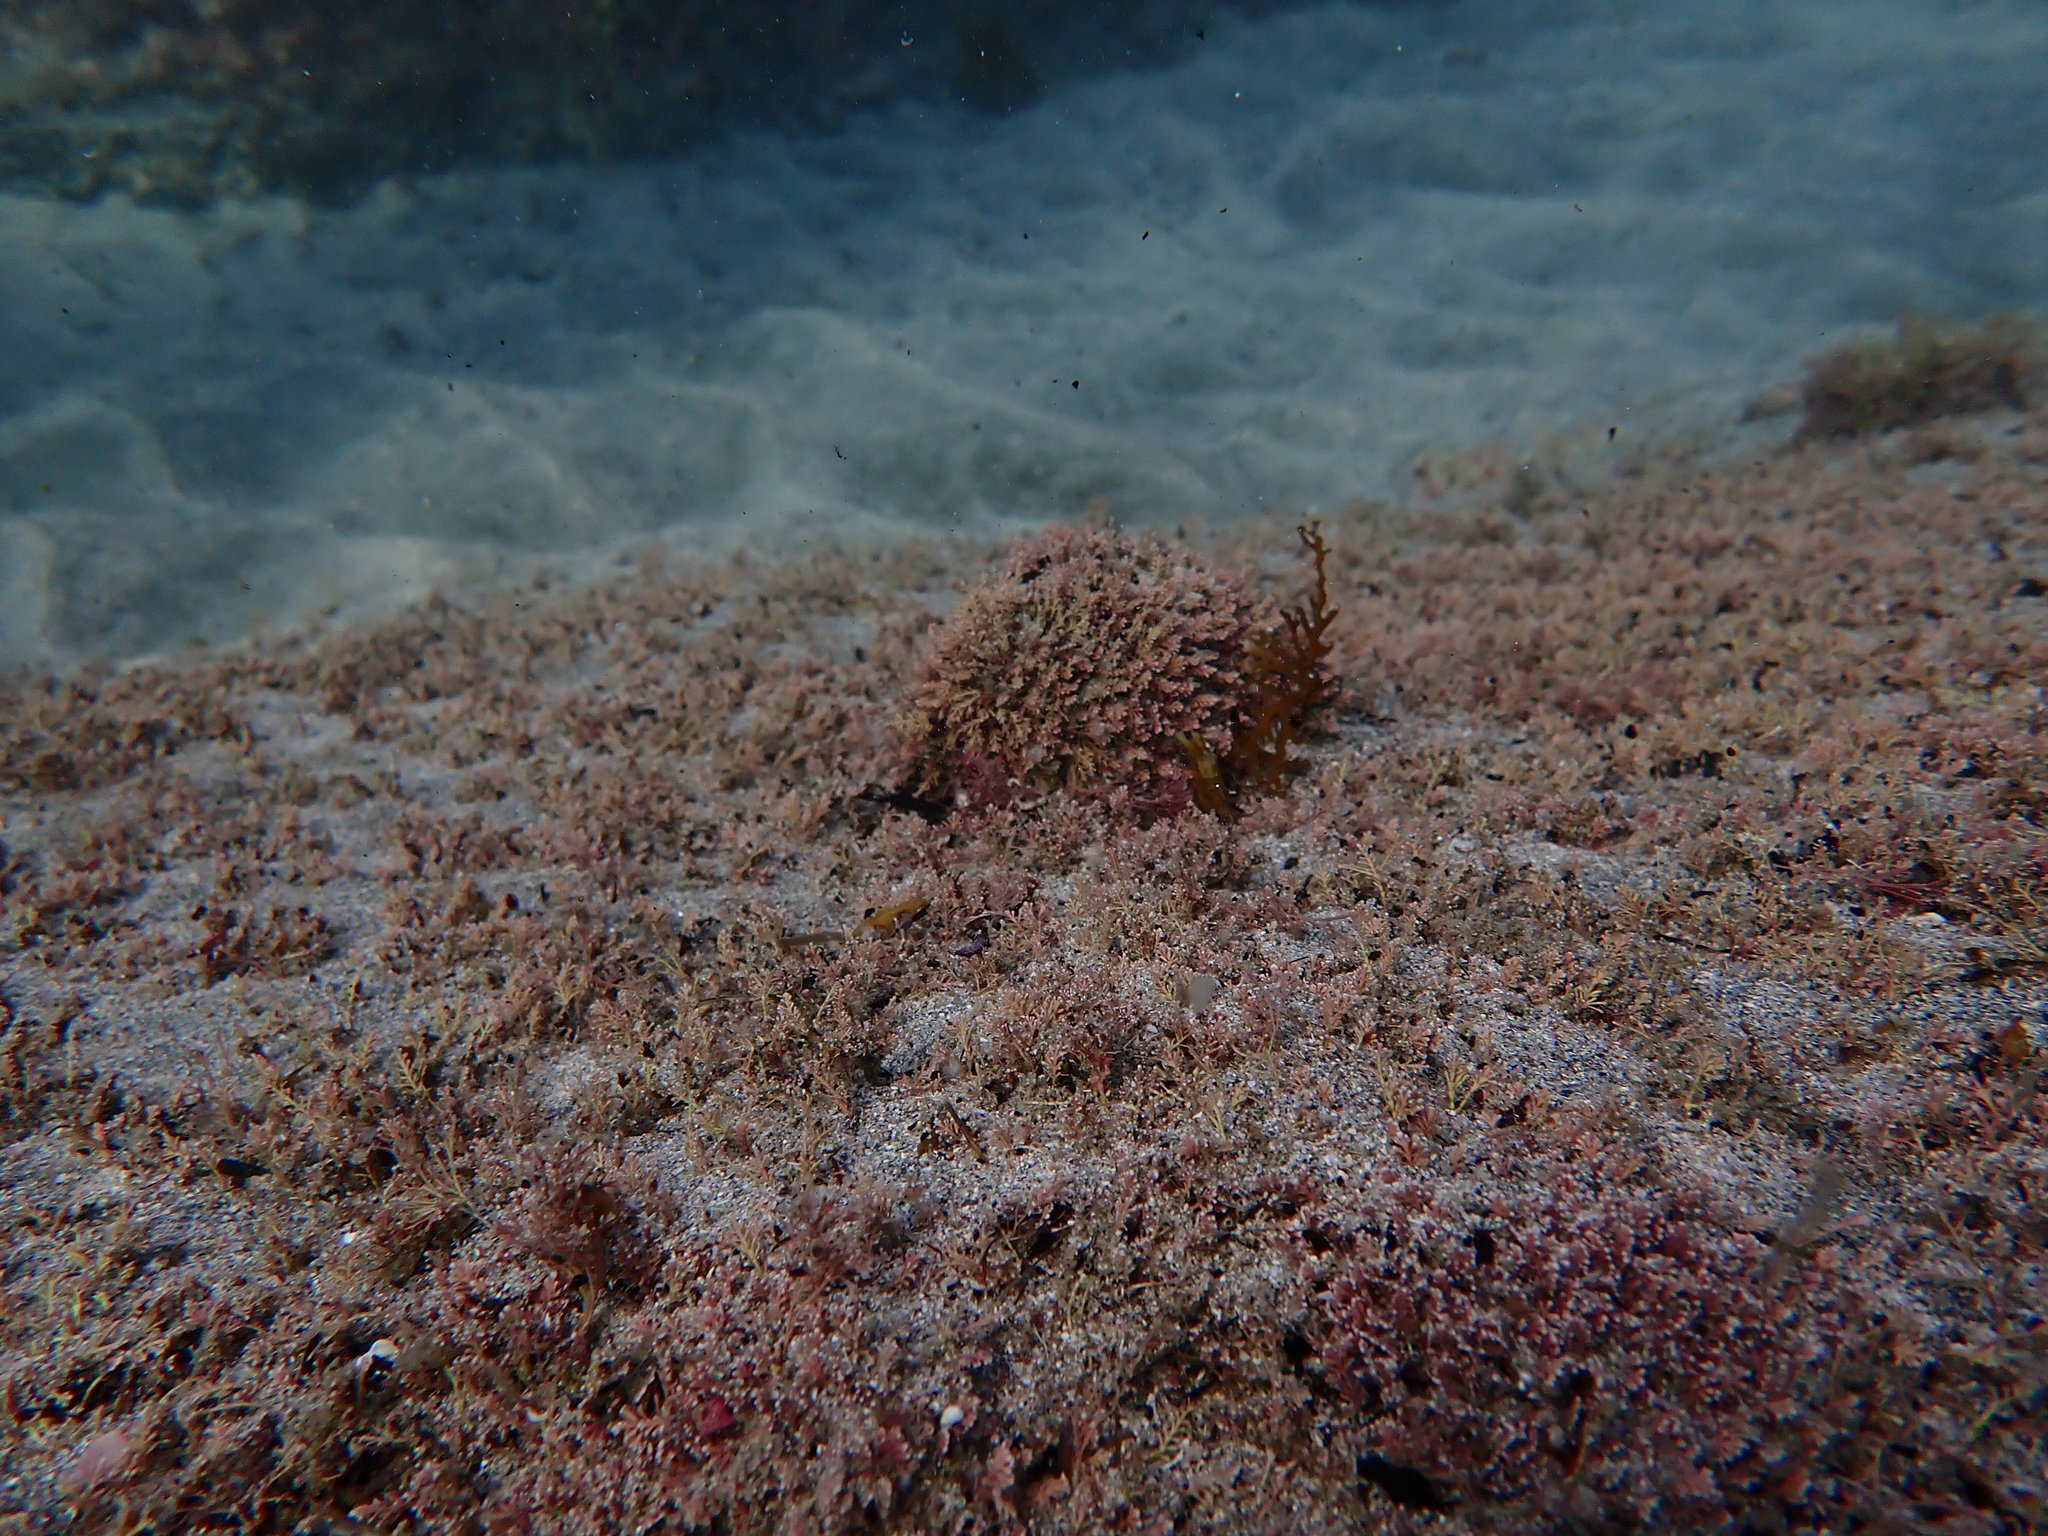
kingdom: Animalia
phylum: Mollusca
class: Bivalvia
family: Cleidothaeridae
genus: Cleidothaerus
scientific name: Cleidothaerus albidus
